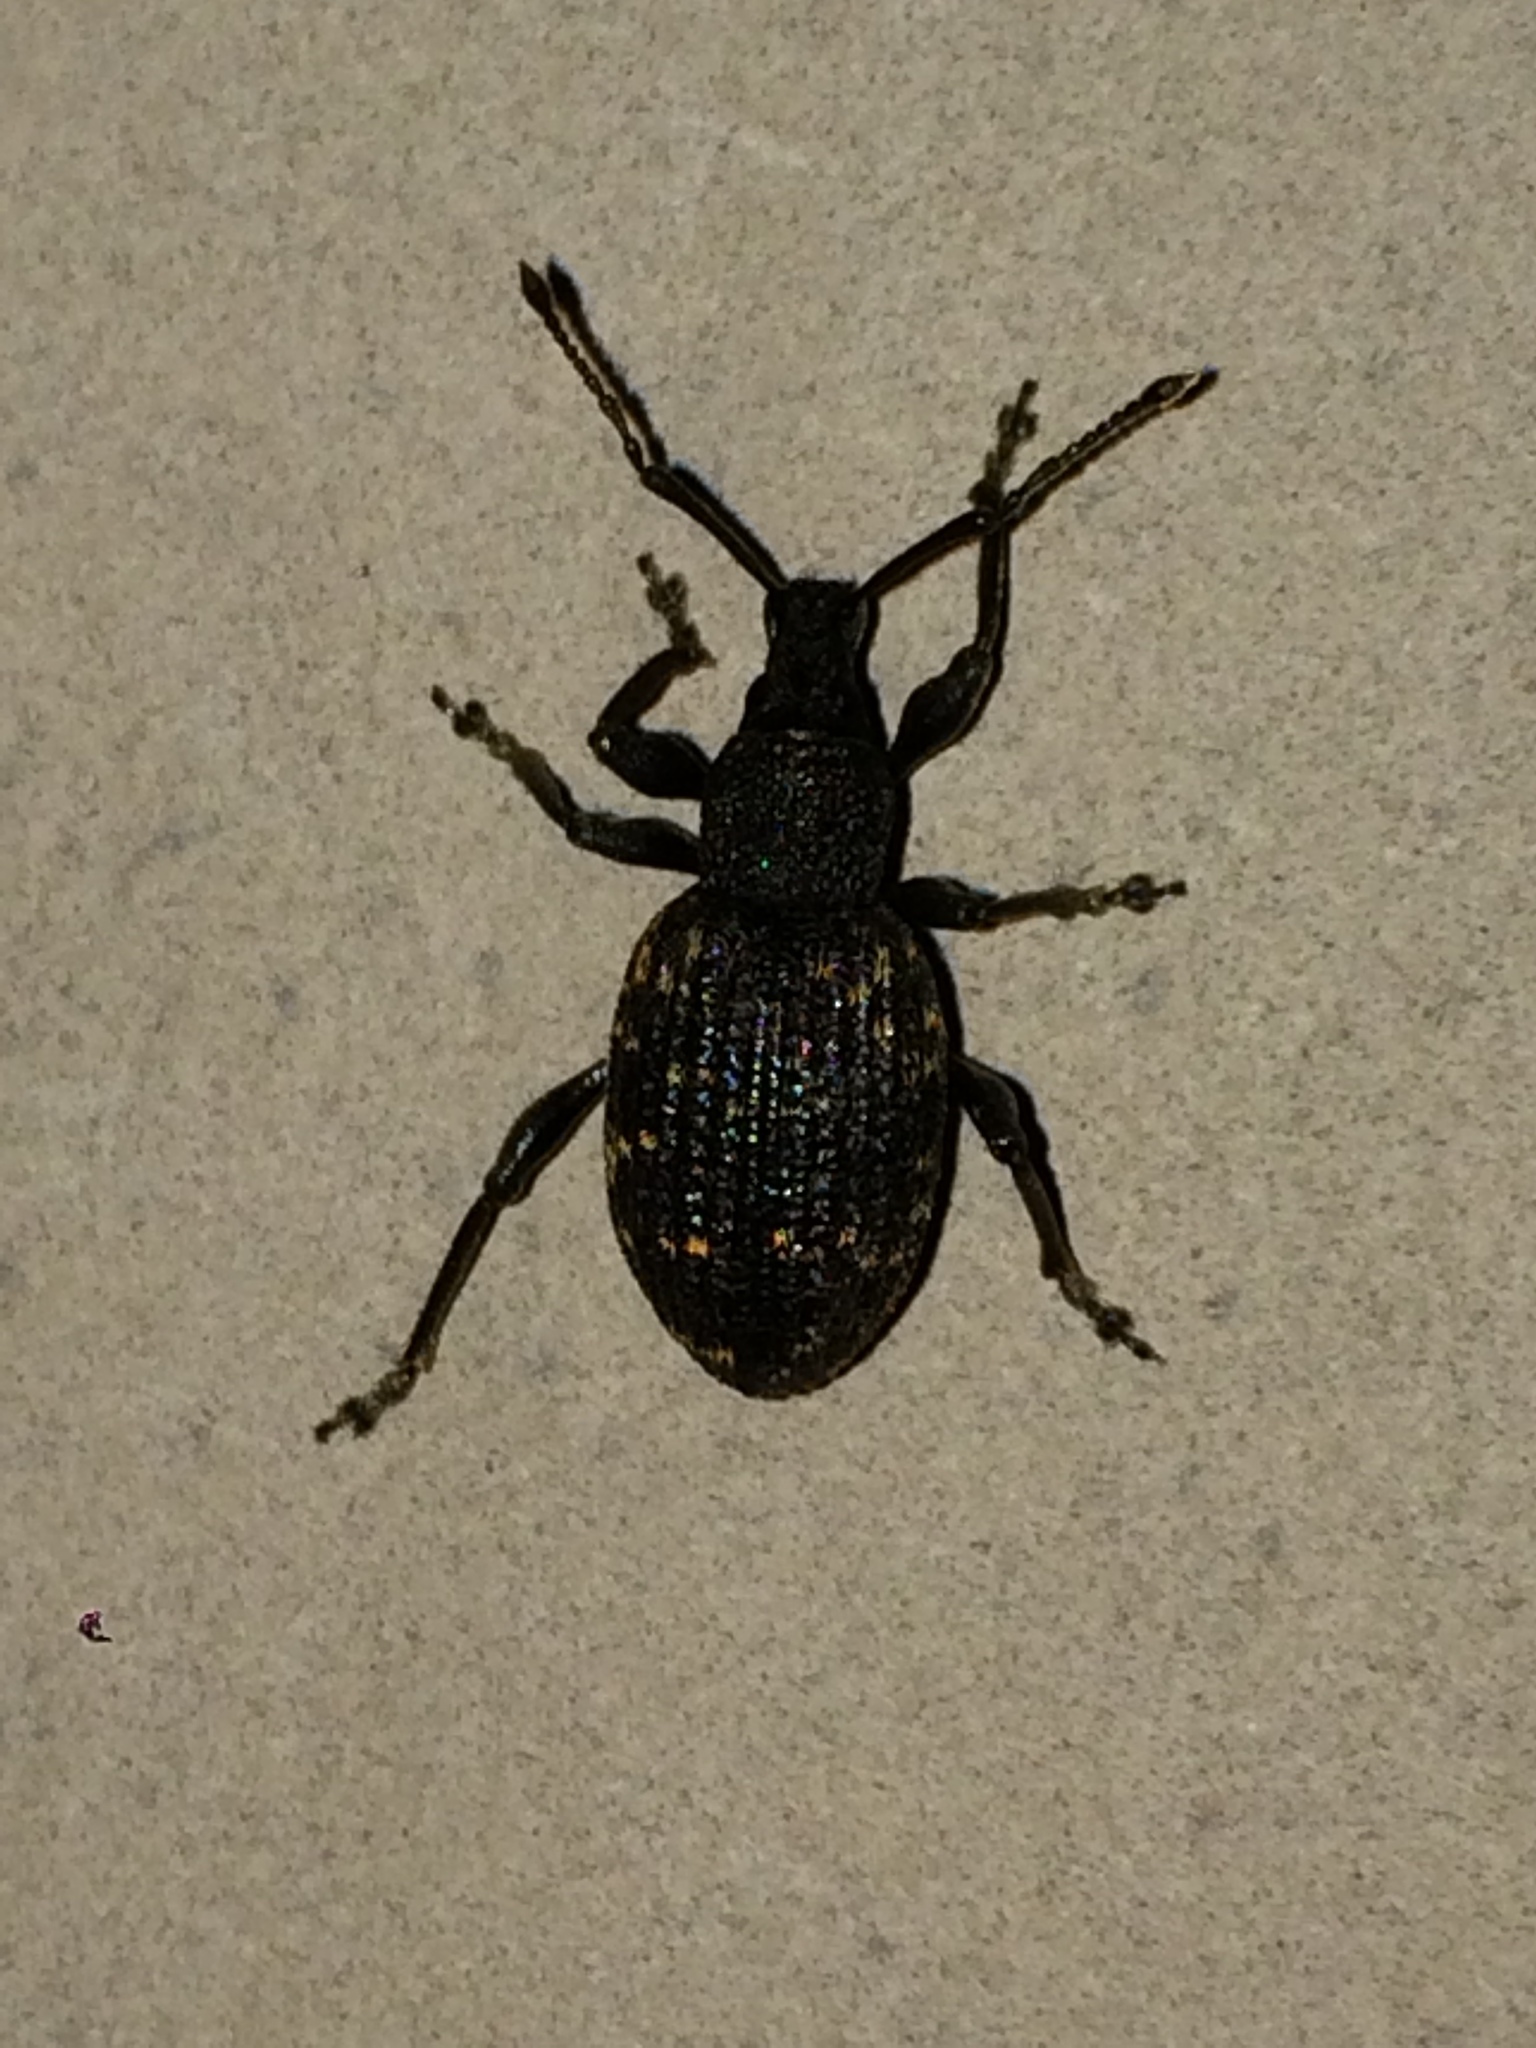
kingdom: Animalia
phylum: Arthropoda
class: Insecta
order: Coleoptera
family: Curculionidae
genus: Otiorhynchus
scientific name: Otiorhynchus sulcatus
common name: Black vine weevil
